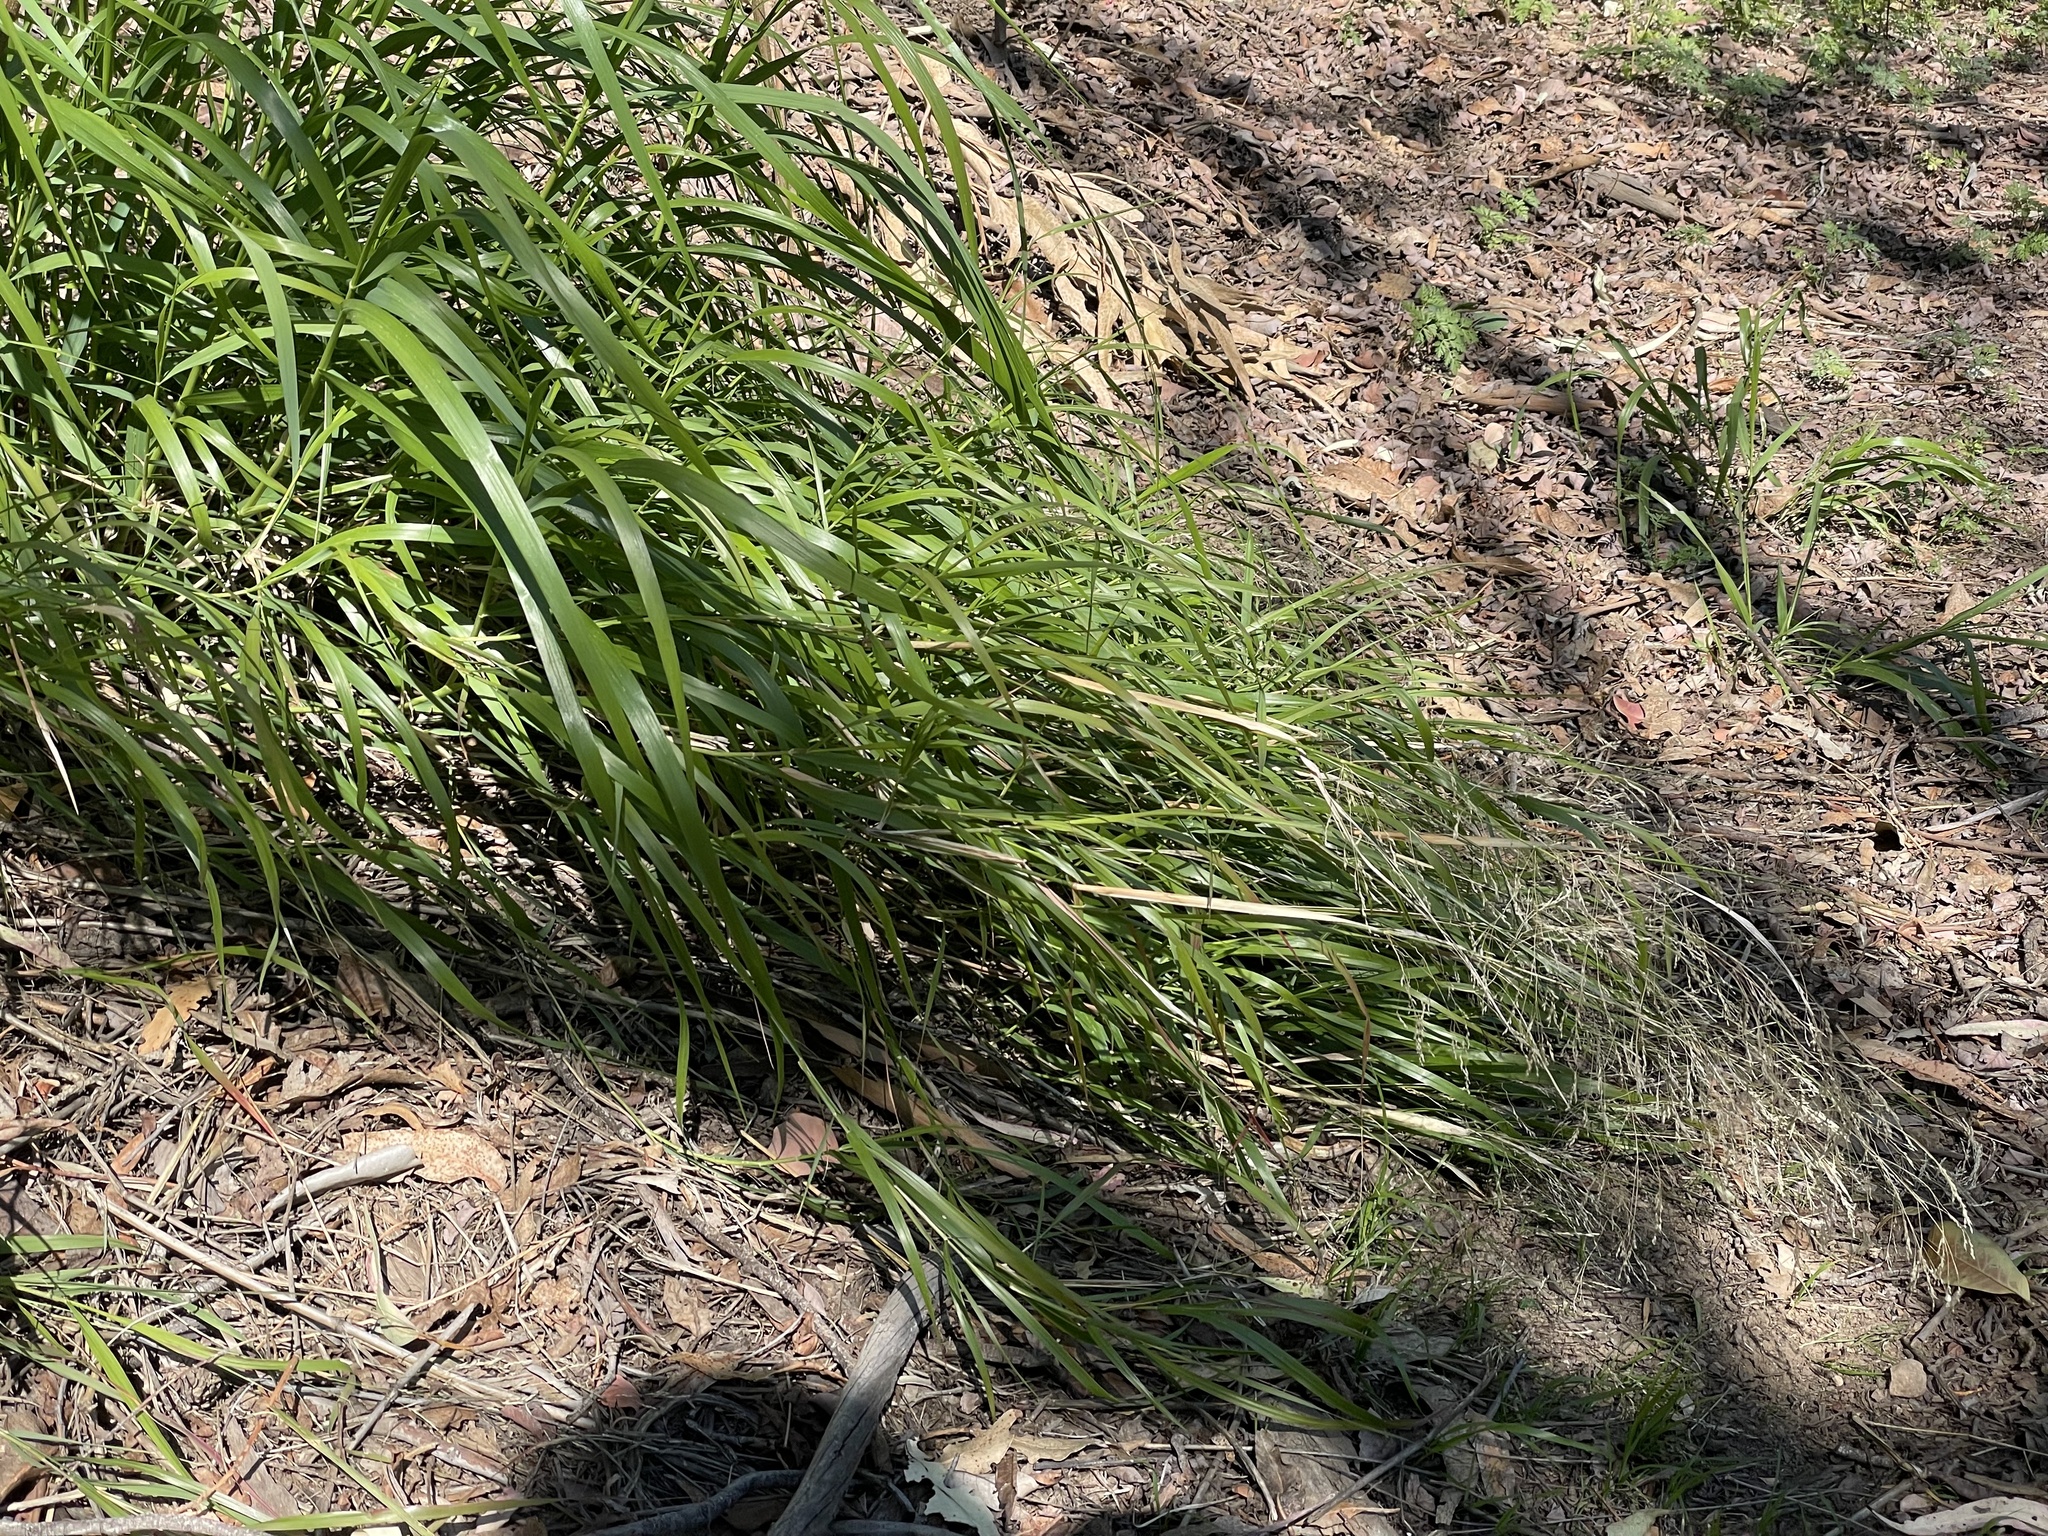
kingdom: Plantae
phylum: Tracheophyta
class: Liliopsida
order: Poales
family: Poaceae
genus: Oloptum
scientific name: Oloptum miliaceum
